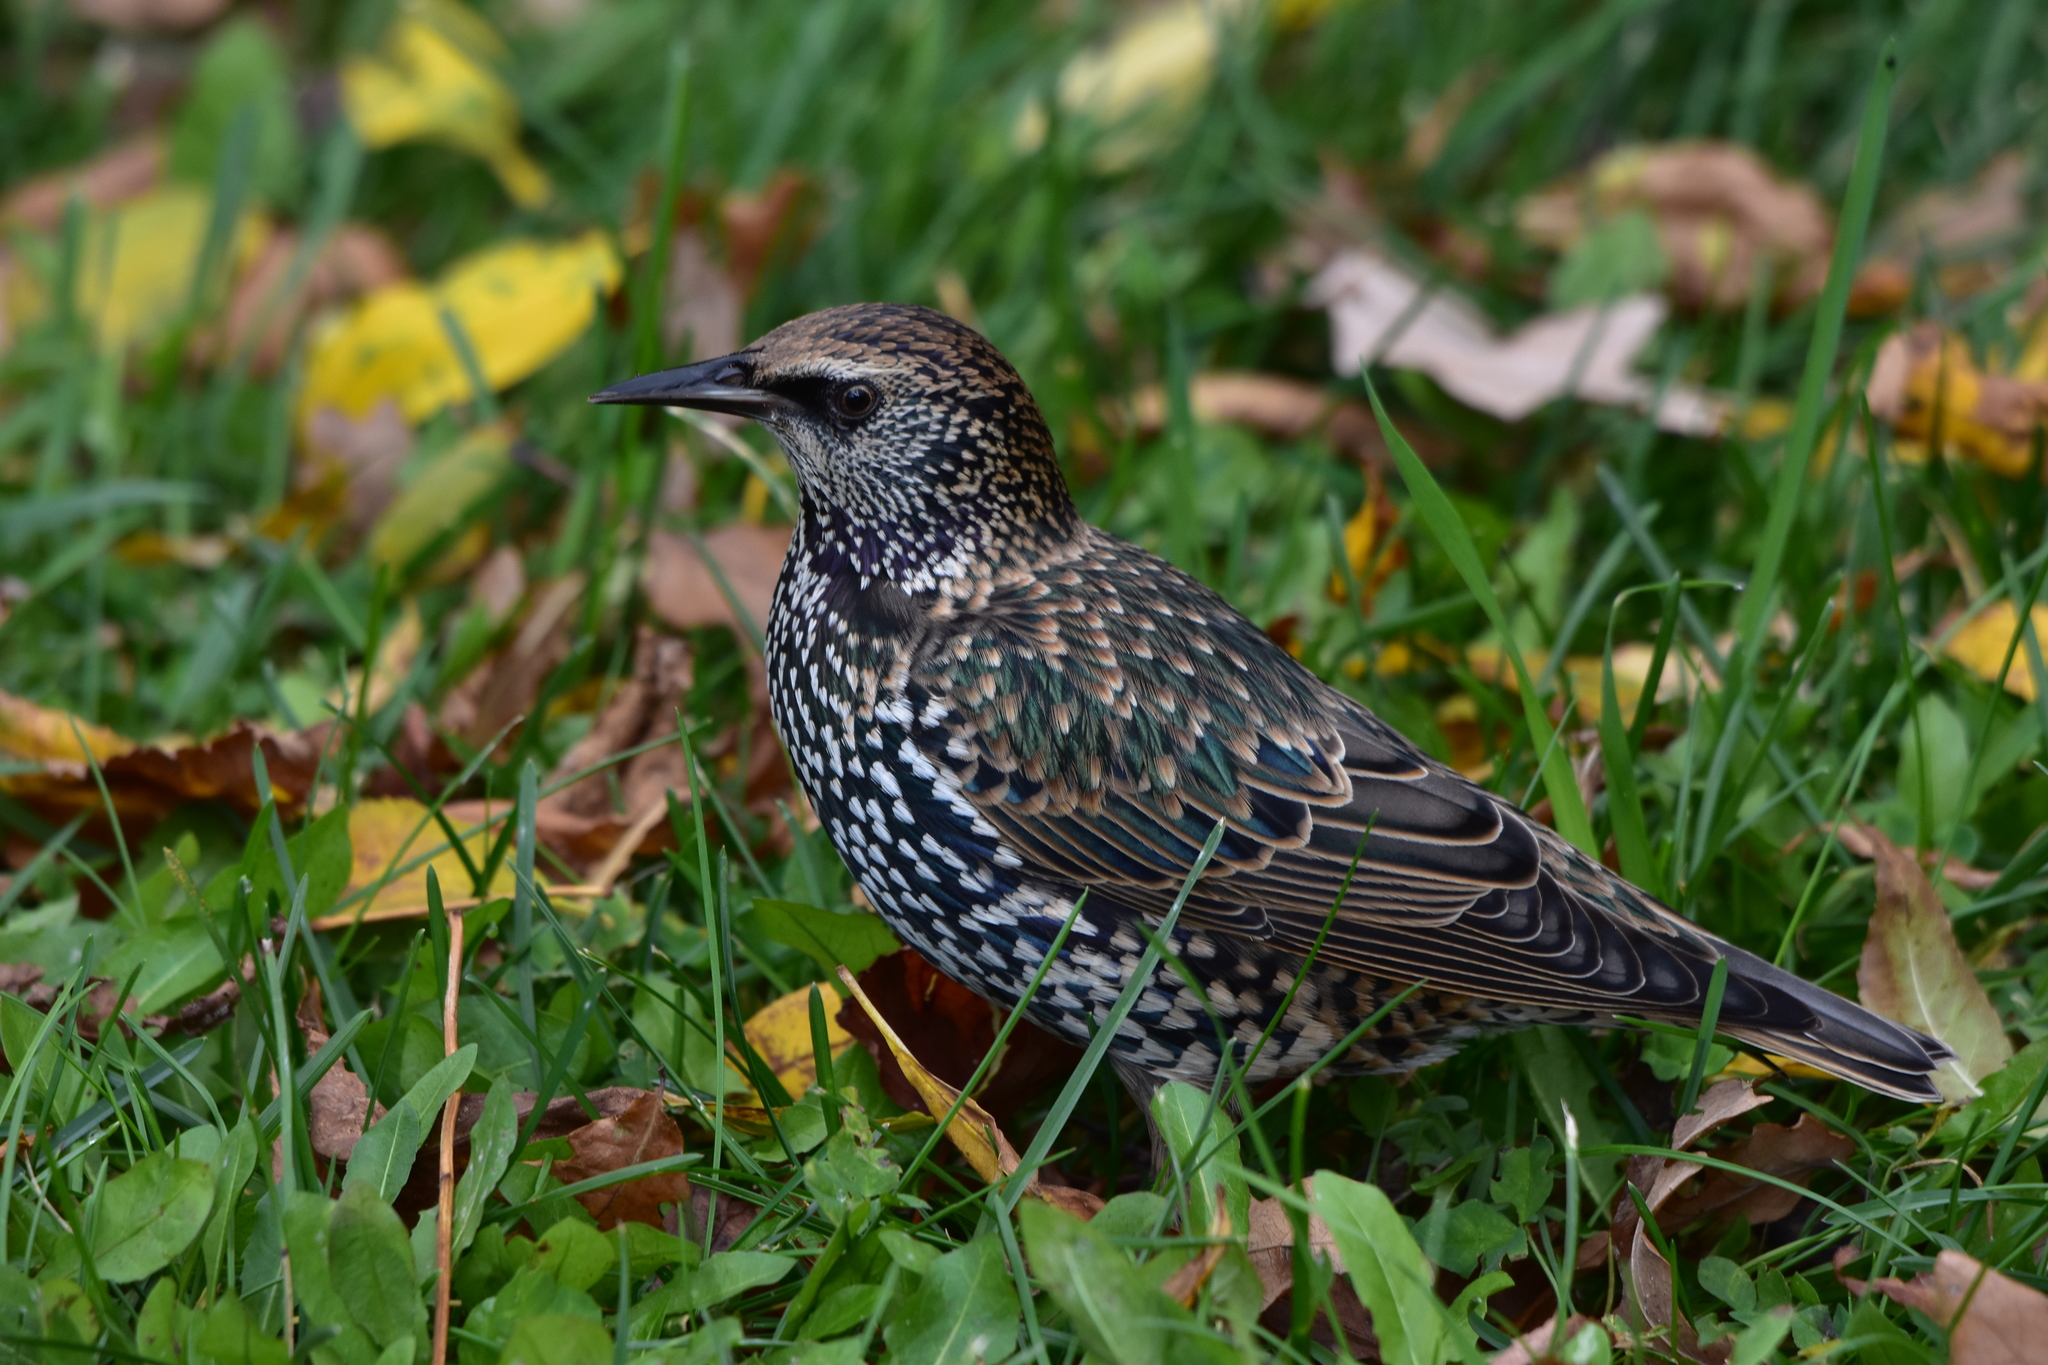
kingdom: Animalia
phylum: Chordata
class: Aves
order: Passeriformes
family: Sturnidae
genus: Sturnus
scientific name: Sturnus vulgaris
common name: Common starling
